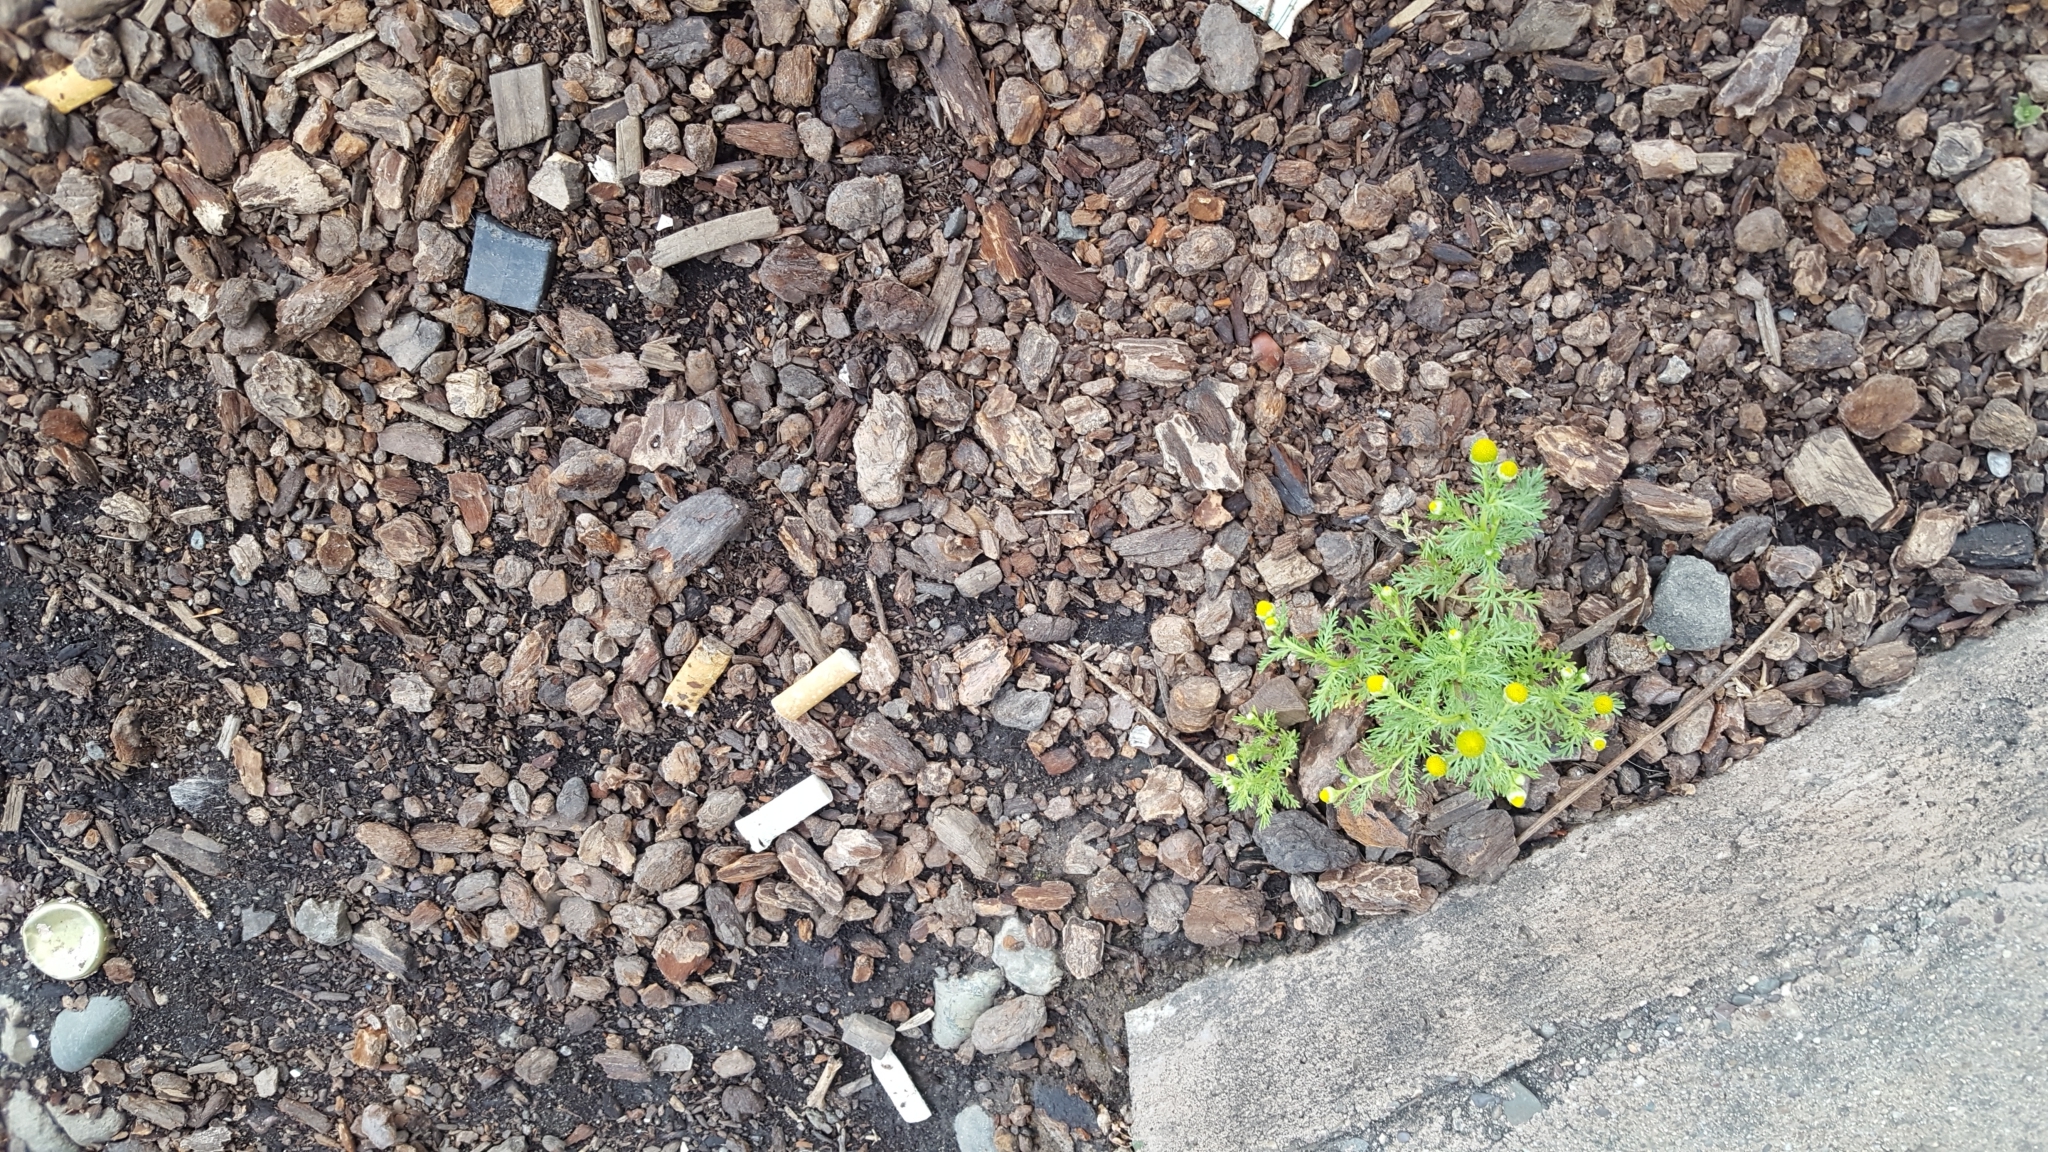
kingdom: Plantae
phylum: Tracheophyta
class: Magnoliopsida
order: Asterales
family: Asteraceae
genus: Matricaria
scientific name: Matricaria discoidea
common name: Disc mayweed
